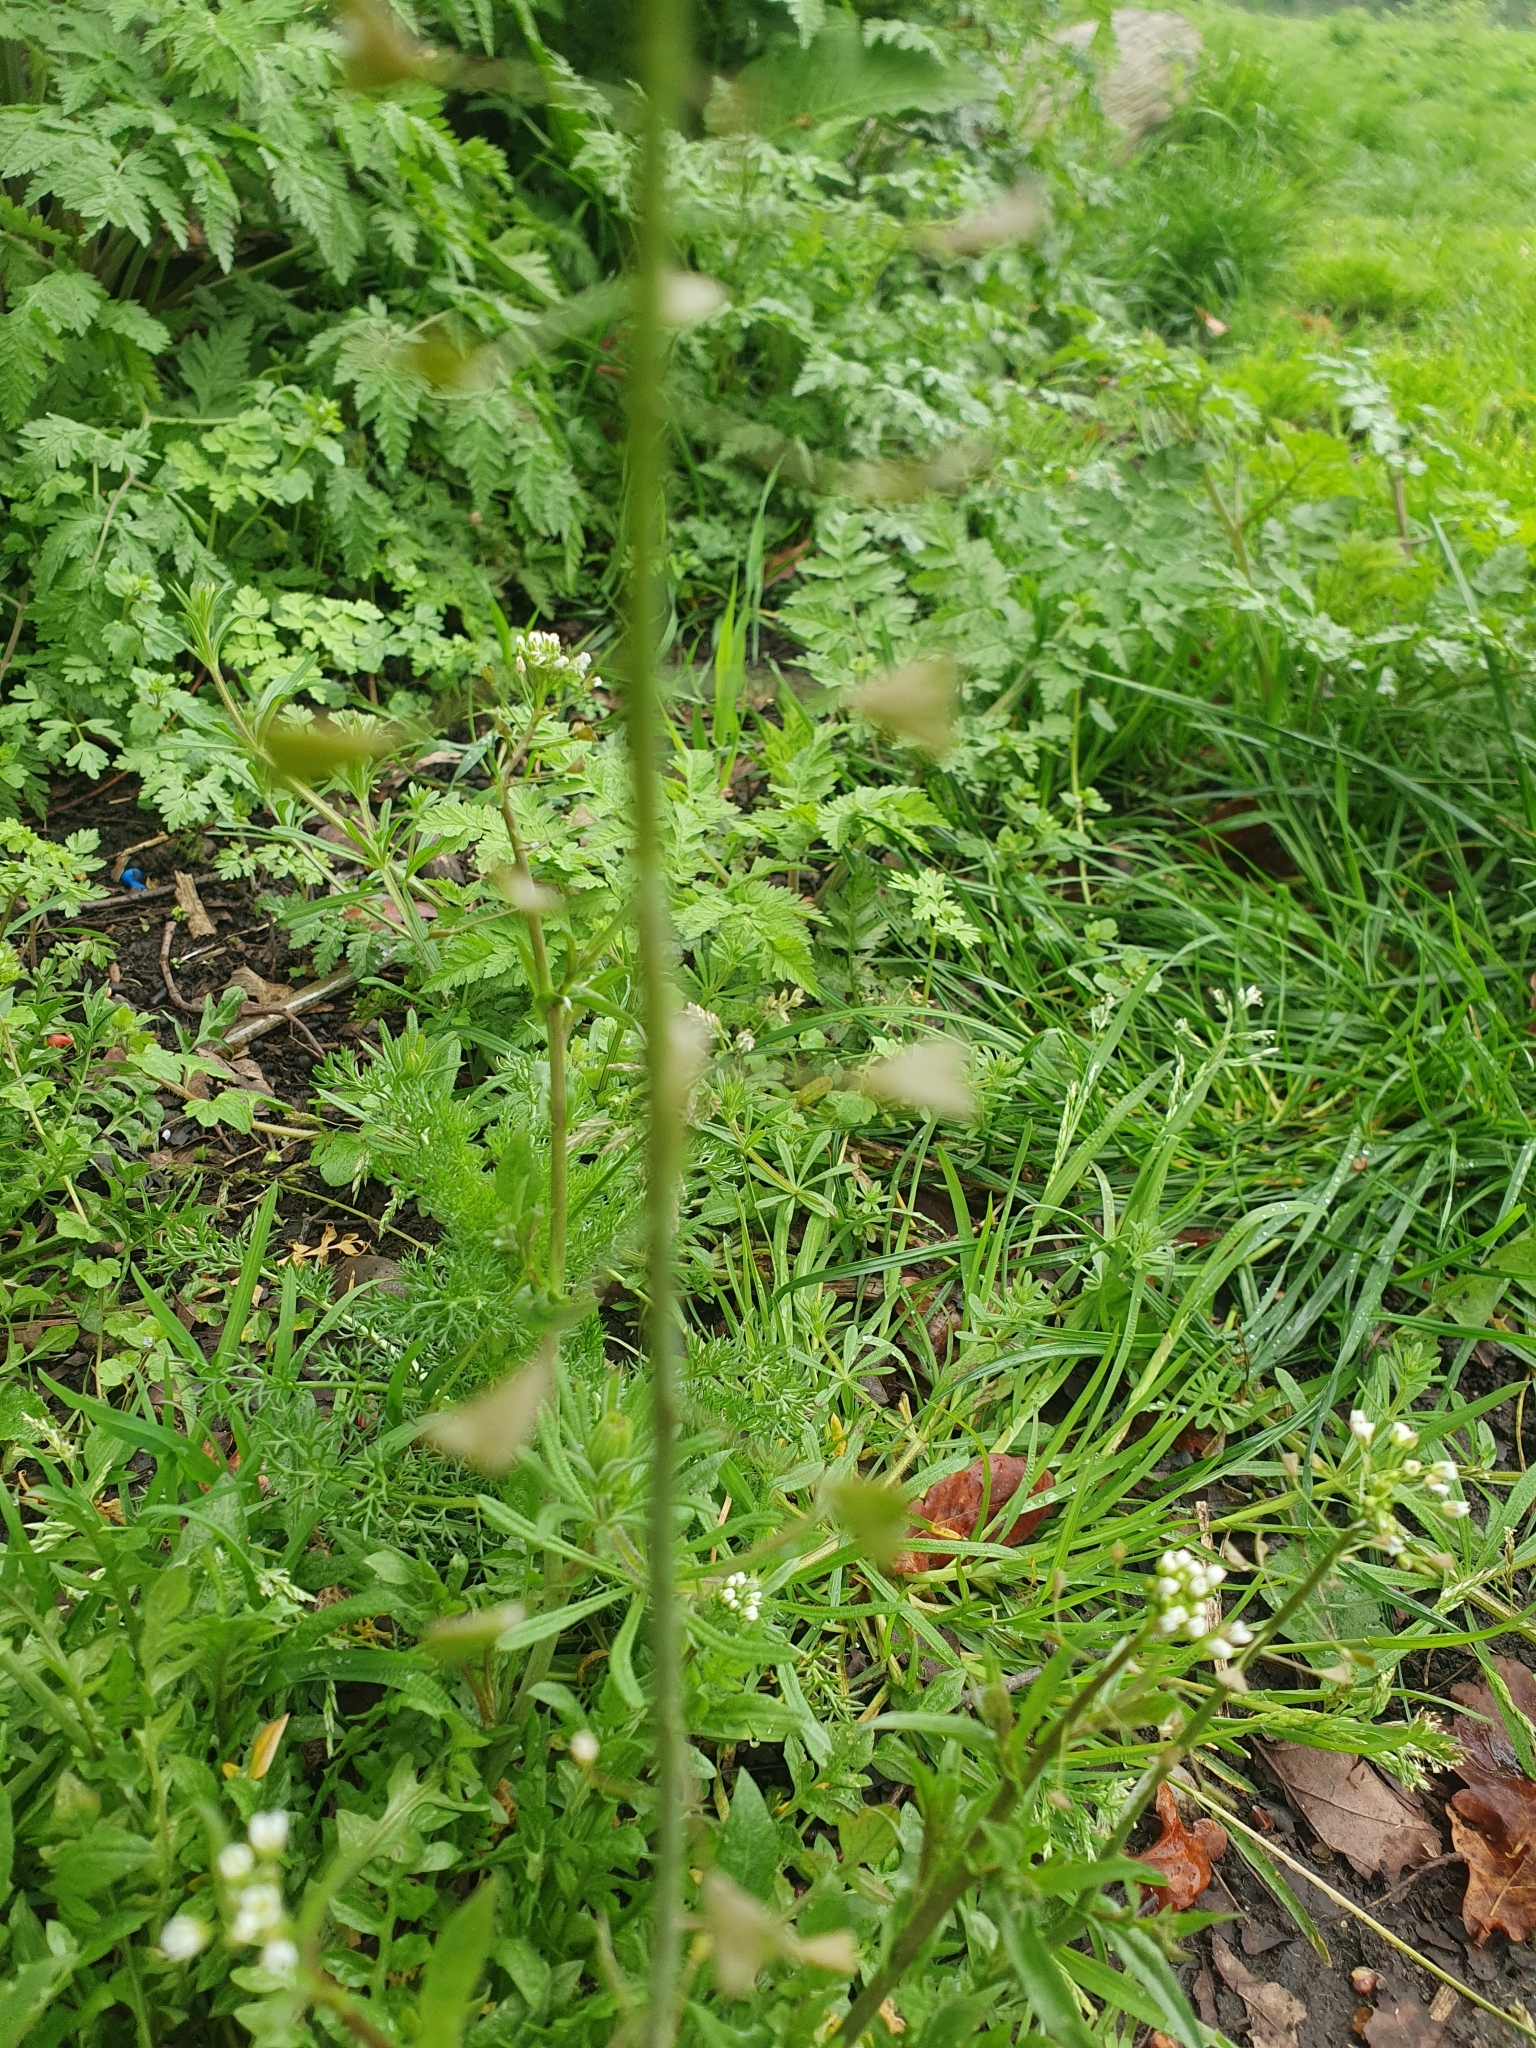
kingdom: Plantae
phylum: Tracheophyta
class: Magnoliopsida
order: Brassicales
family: Brassicaceae
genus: Capsella
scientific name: Capsella bursa-pastoris
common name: Shepherd's purse
